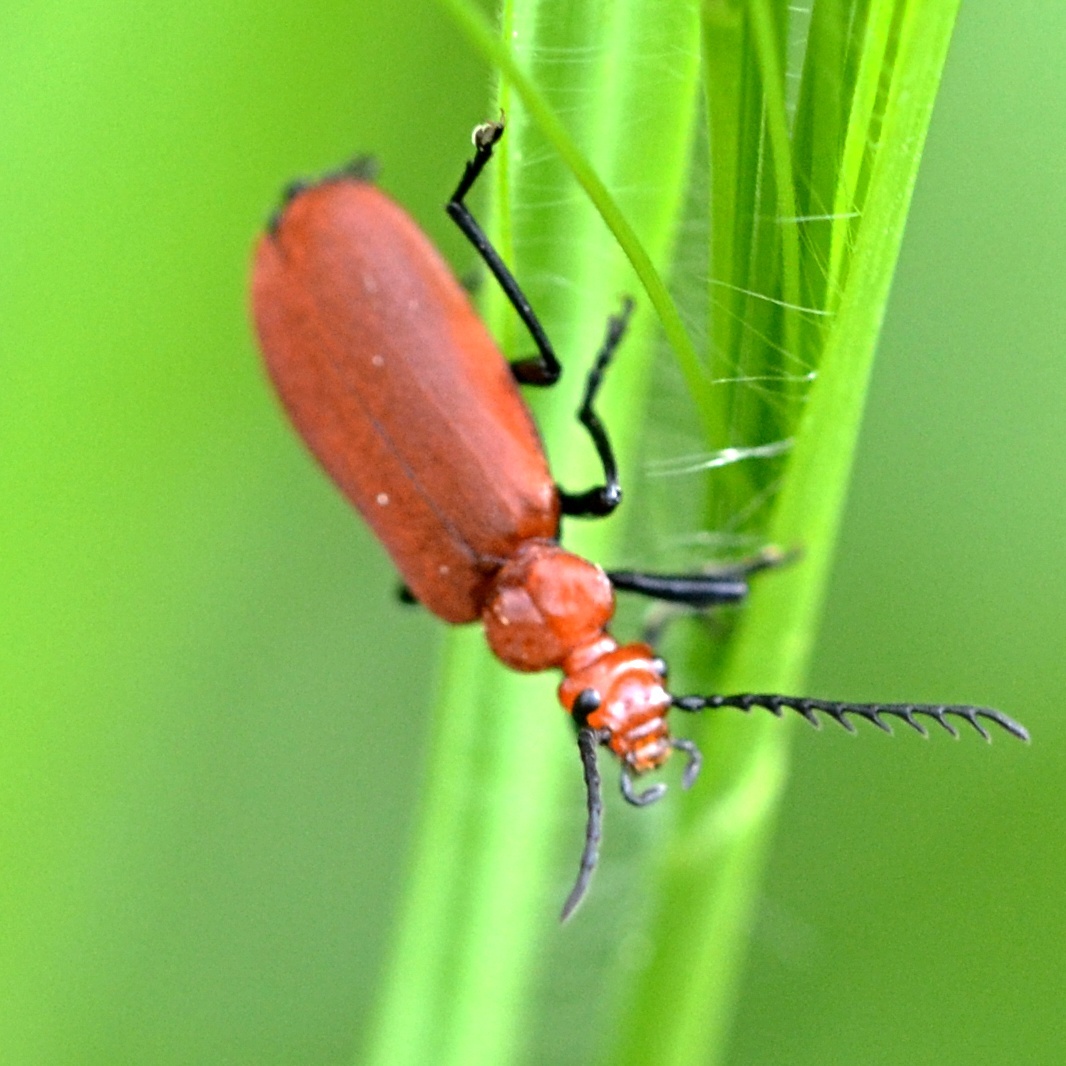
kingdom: Animalia
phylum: Arthropoda
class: Insecta
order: Coleoptera
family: Pyrochroidae
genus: Pyrochroa
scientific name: Pyrochroa serraticornis
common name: Red-headed cardinal beetle
